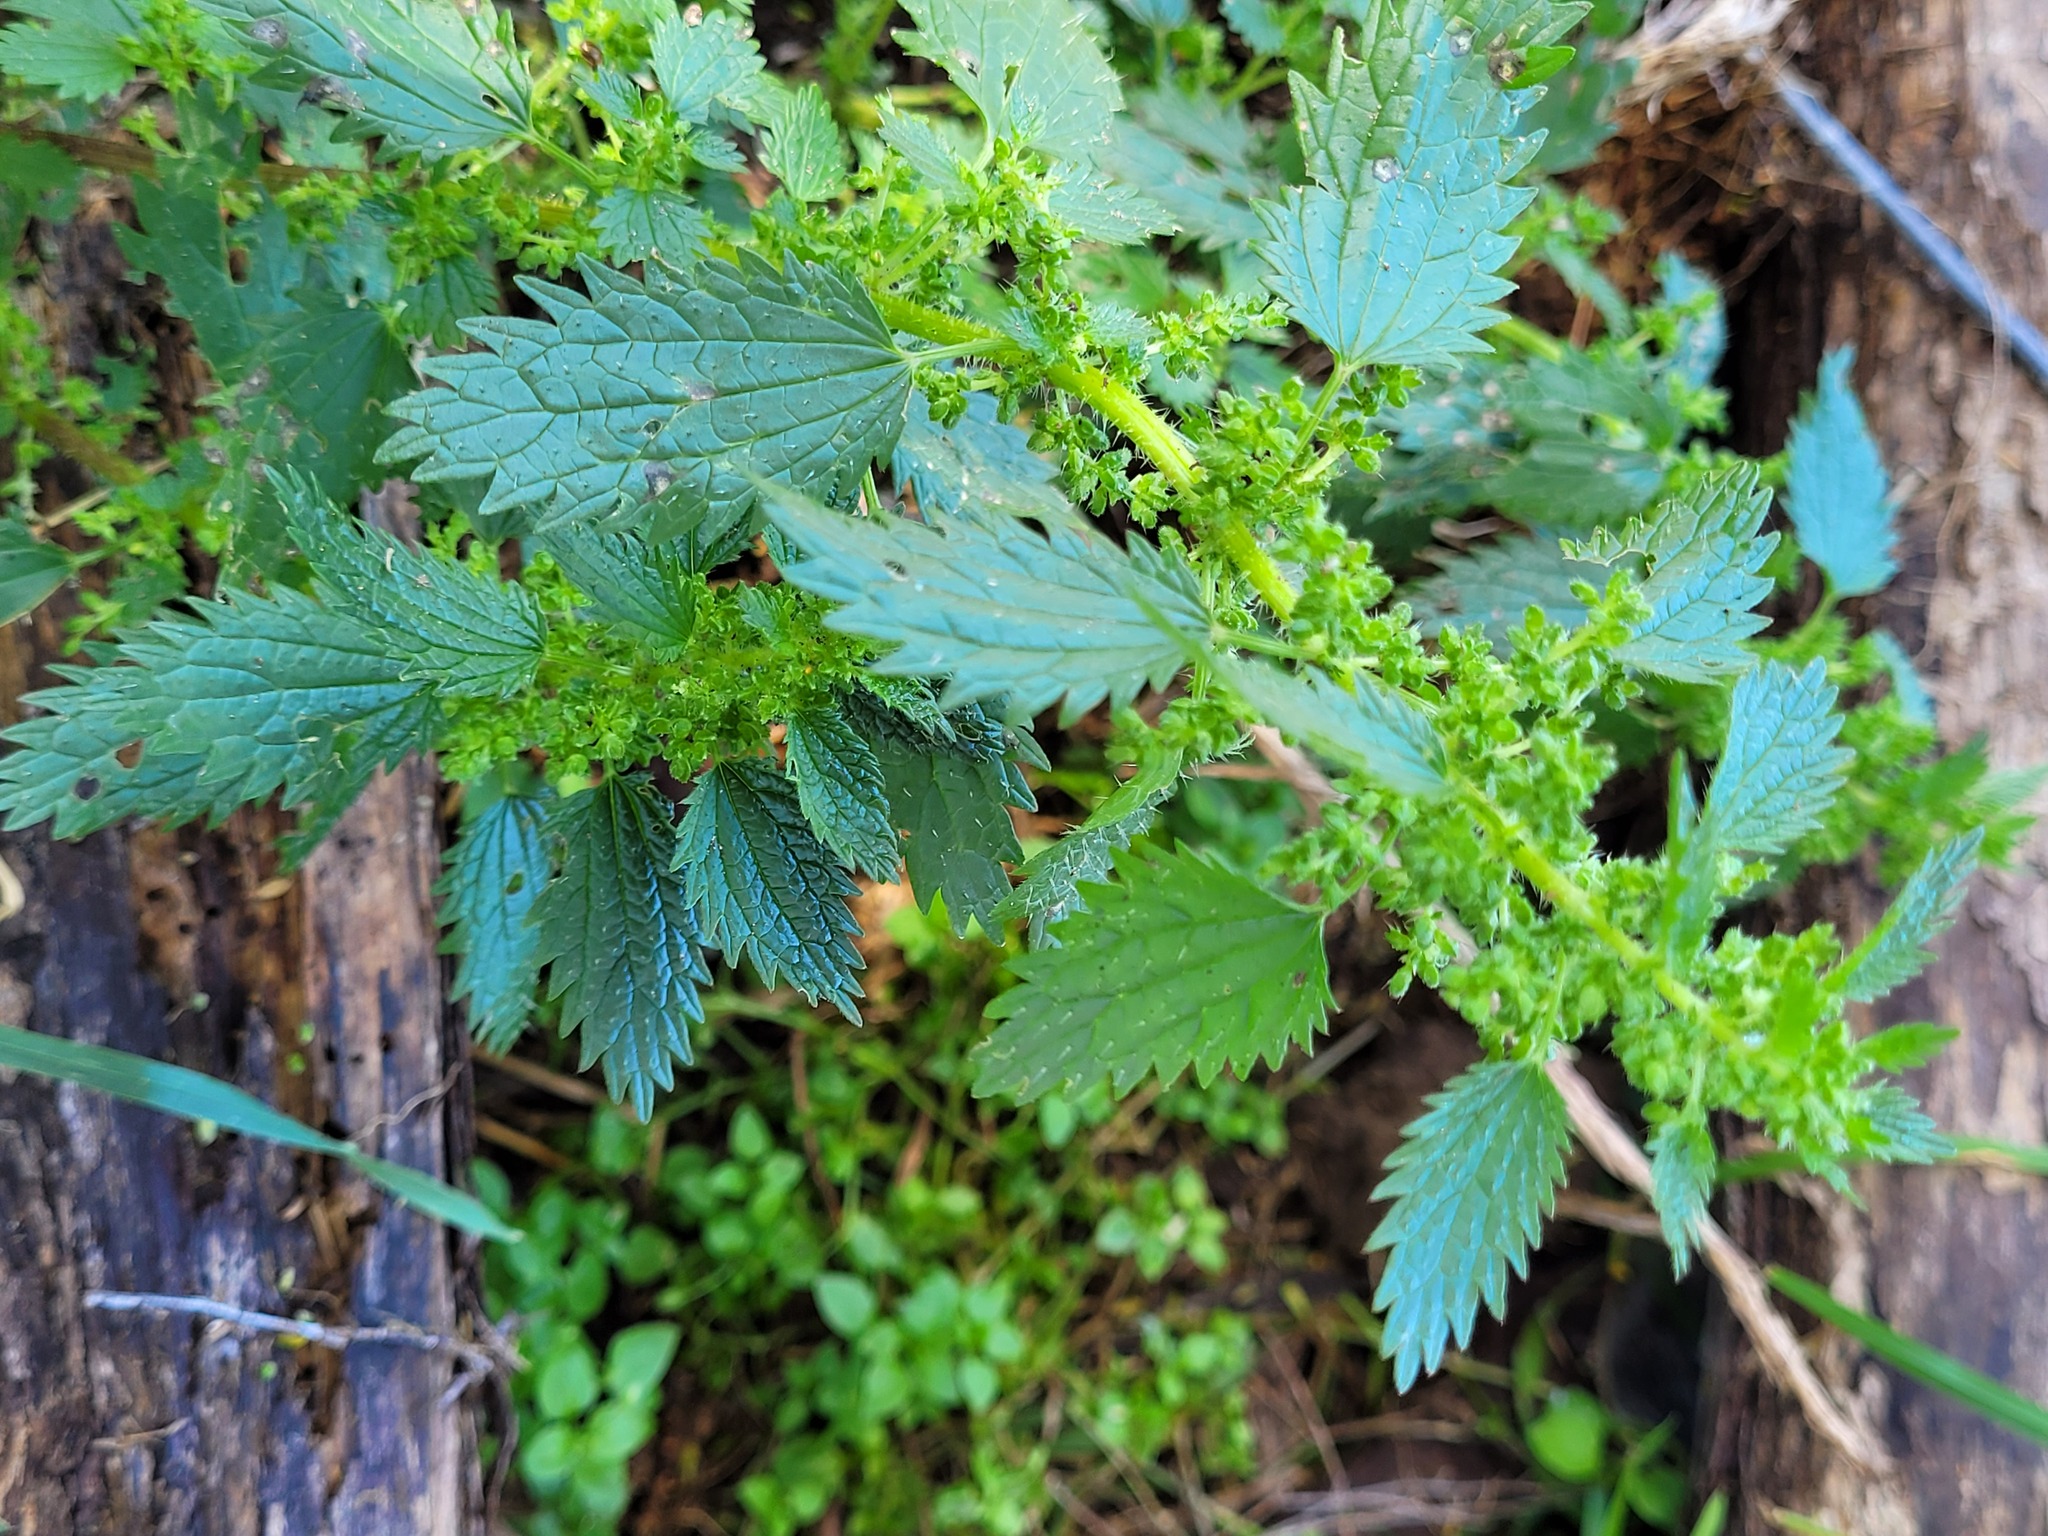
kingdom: Plantae
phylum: Tracheophyta
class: Magnoliopsida
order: Rosales
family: Urticaceae
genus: Urtica
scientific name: Urtica urens
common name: Dwarf nettle
